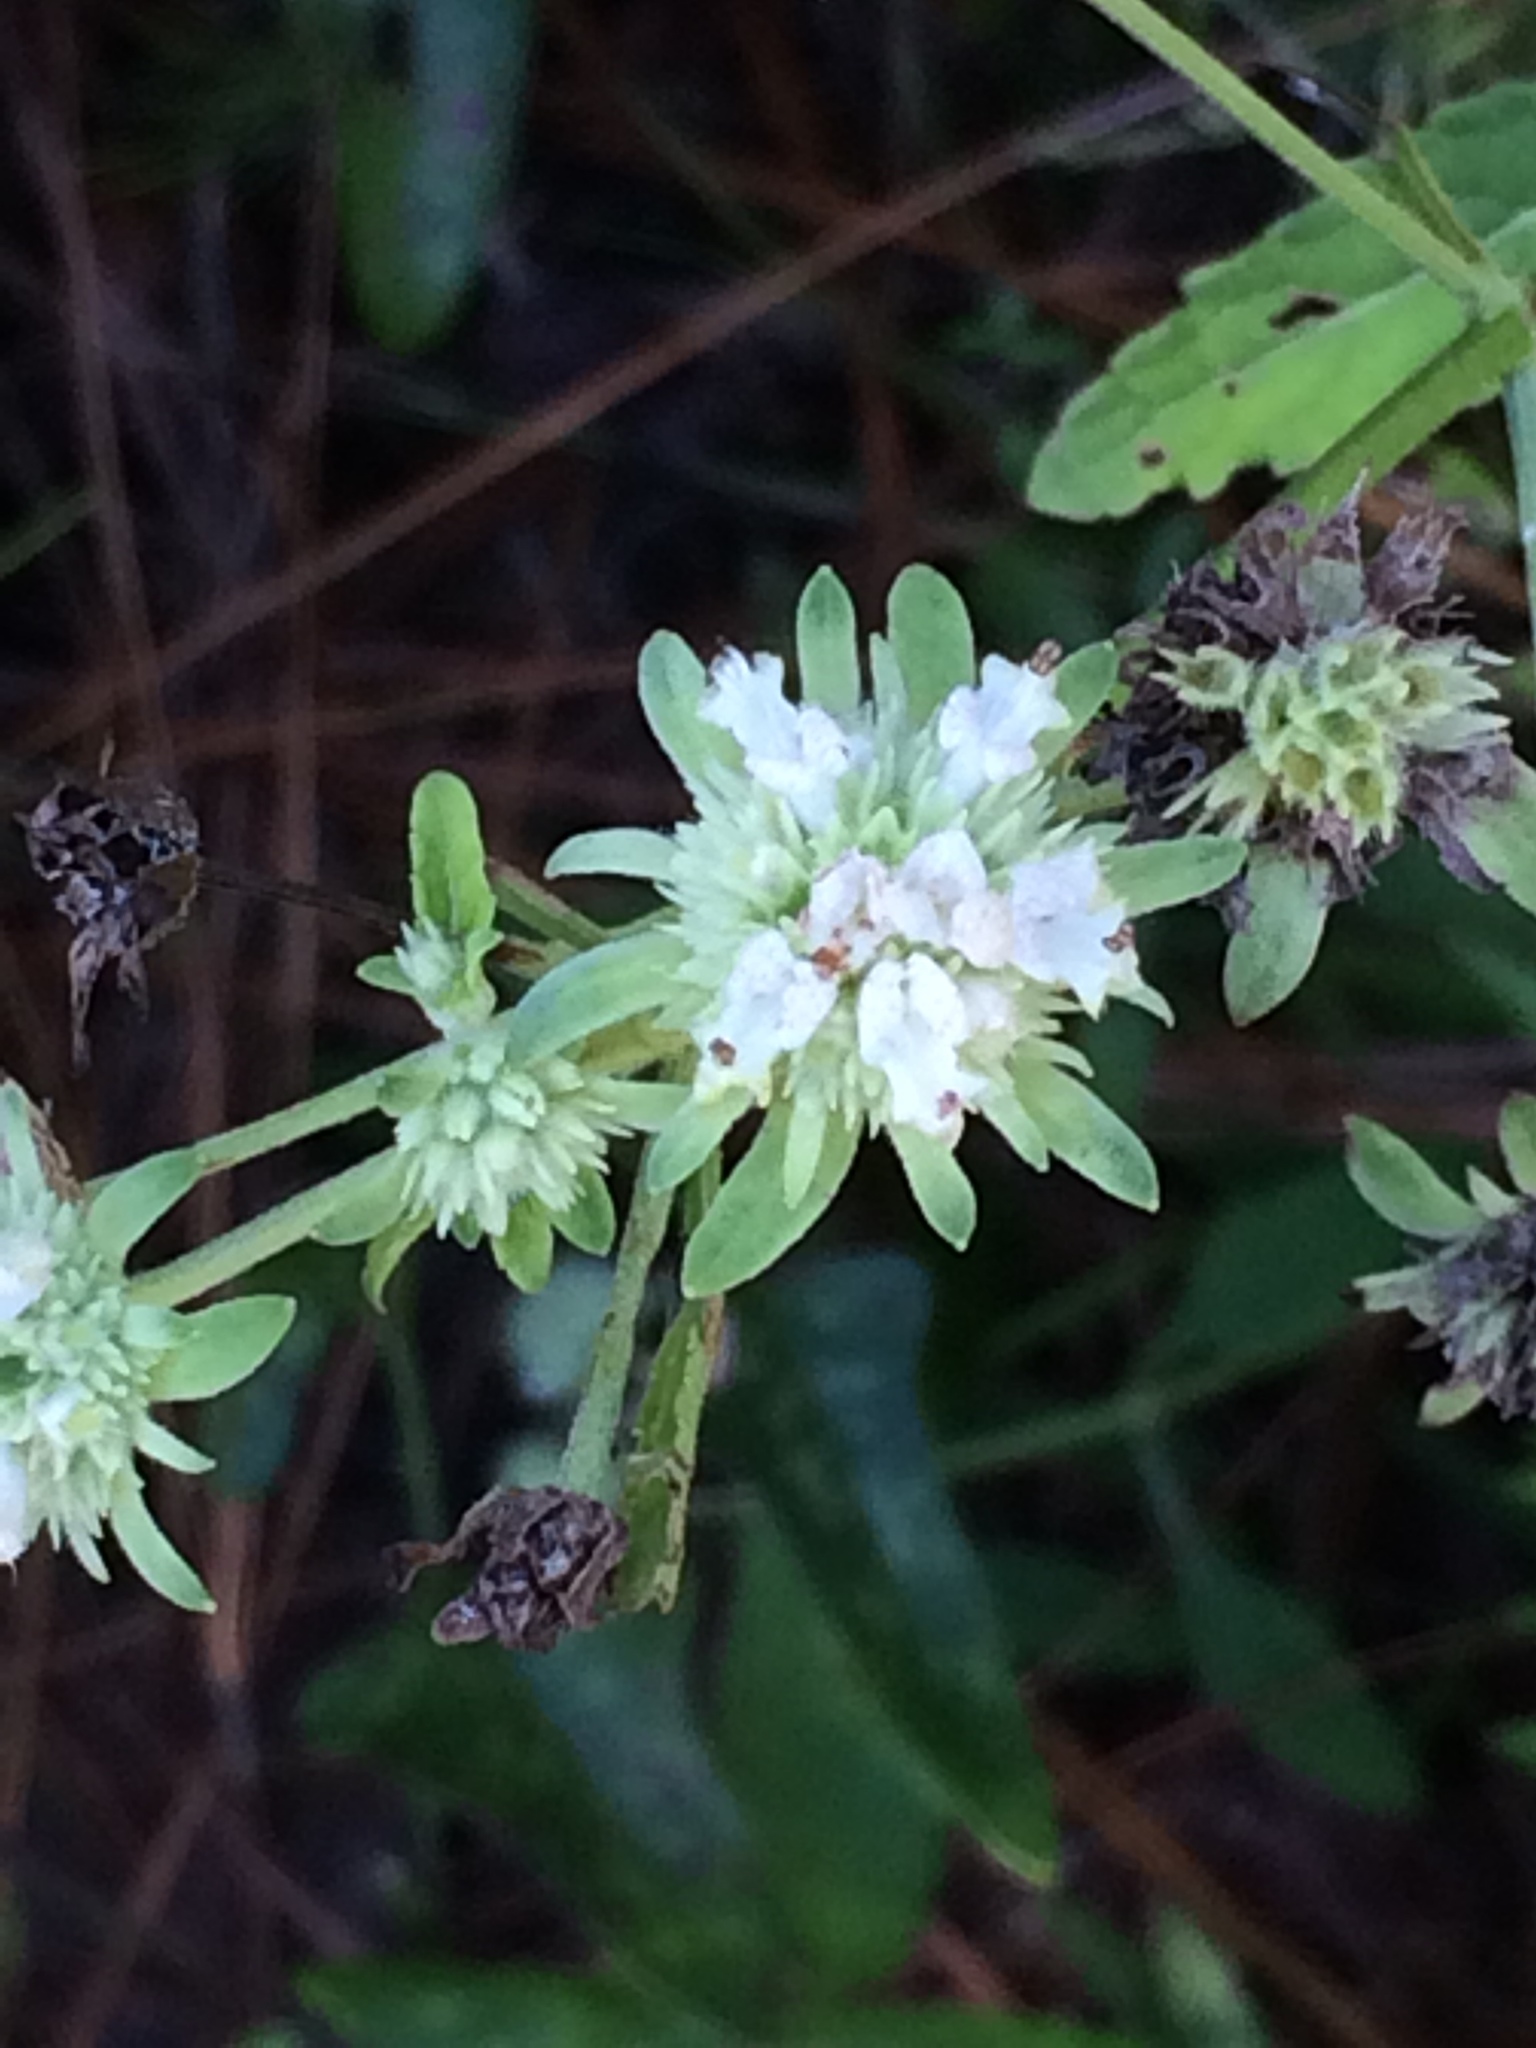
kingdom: Plantae
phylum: Tracheophyta
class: Magnoliopsida
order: Lamiales
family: Lamiaceae
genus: Hyptis
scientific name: Hyptis alata
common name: Cluster bush-mint
